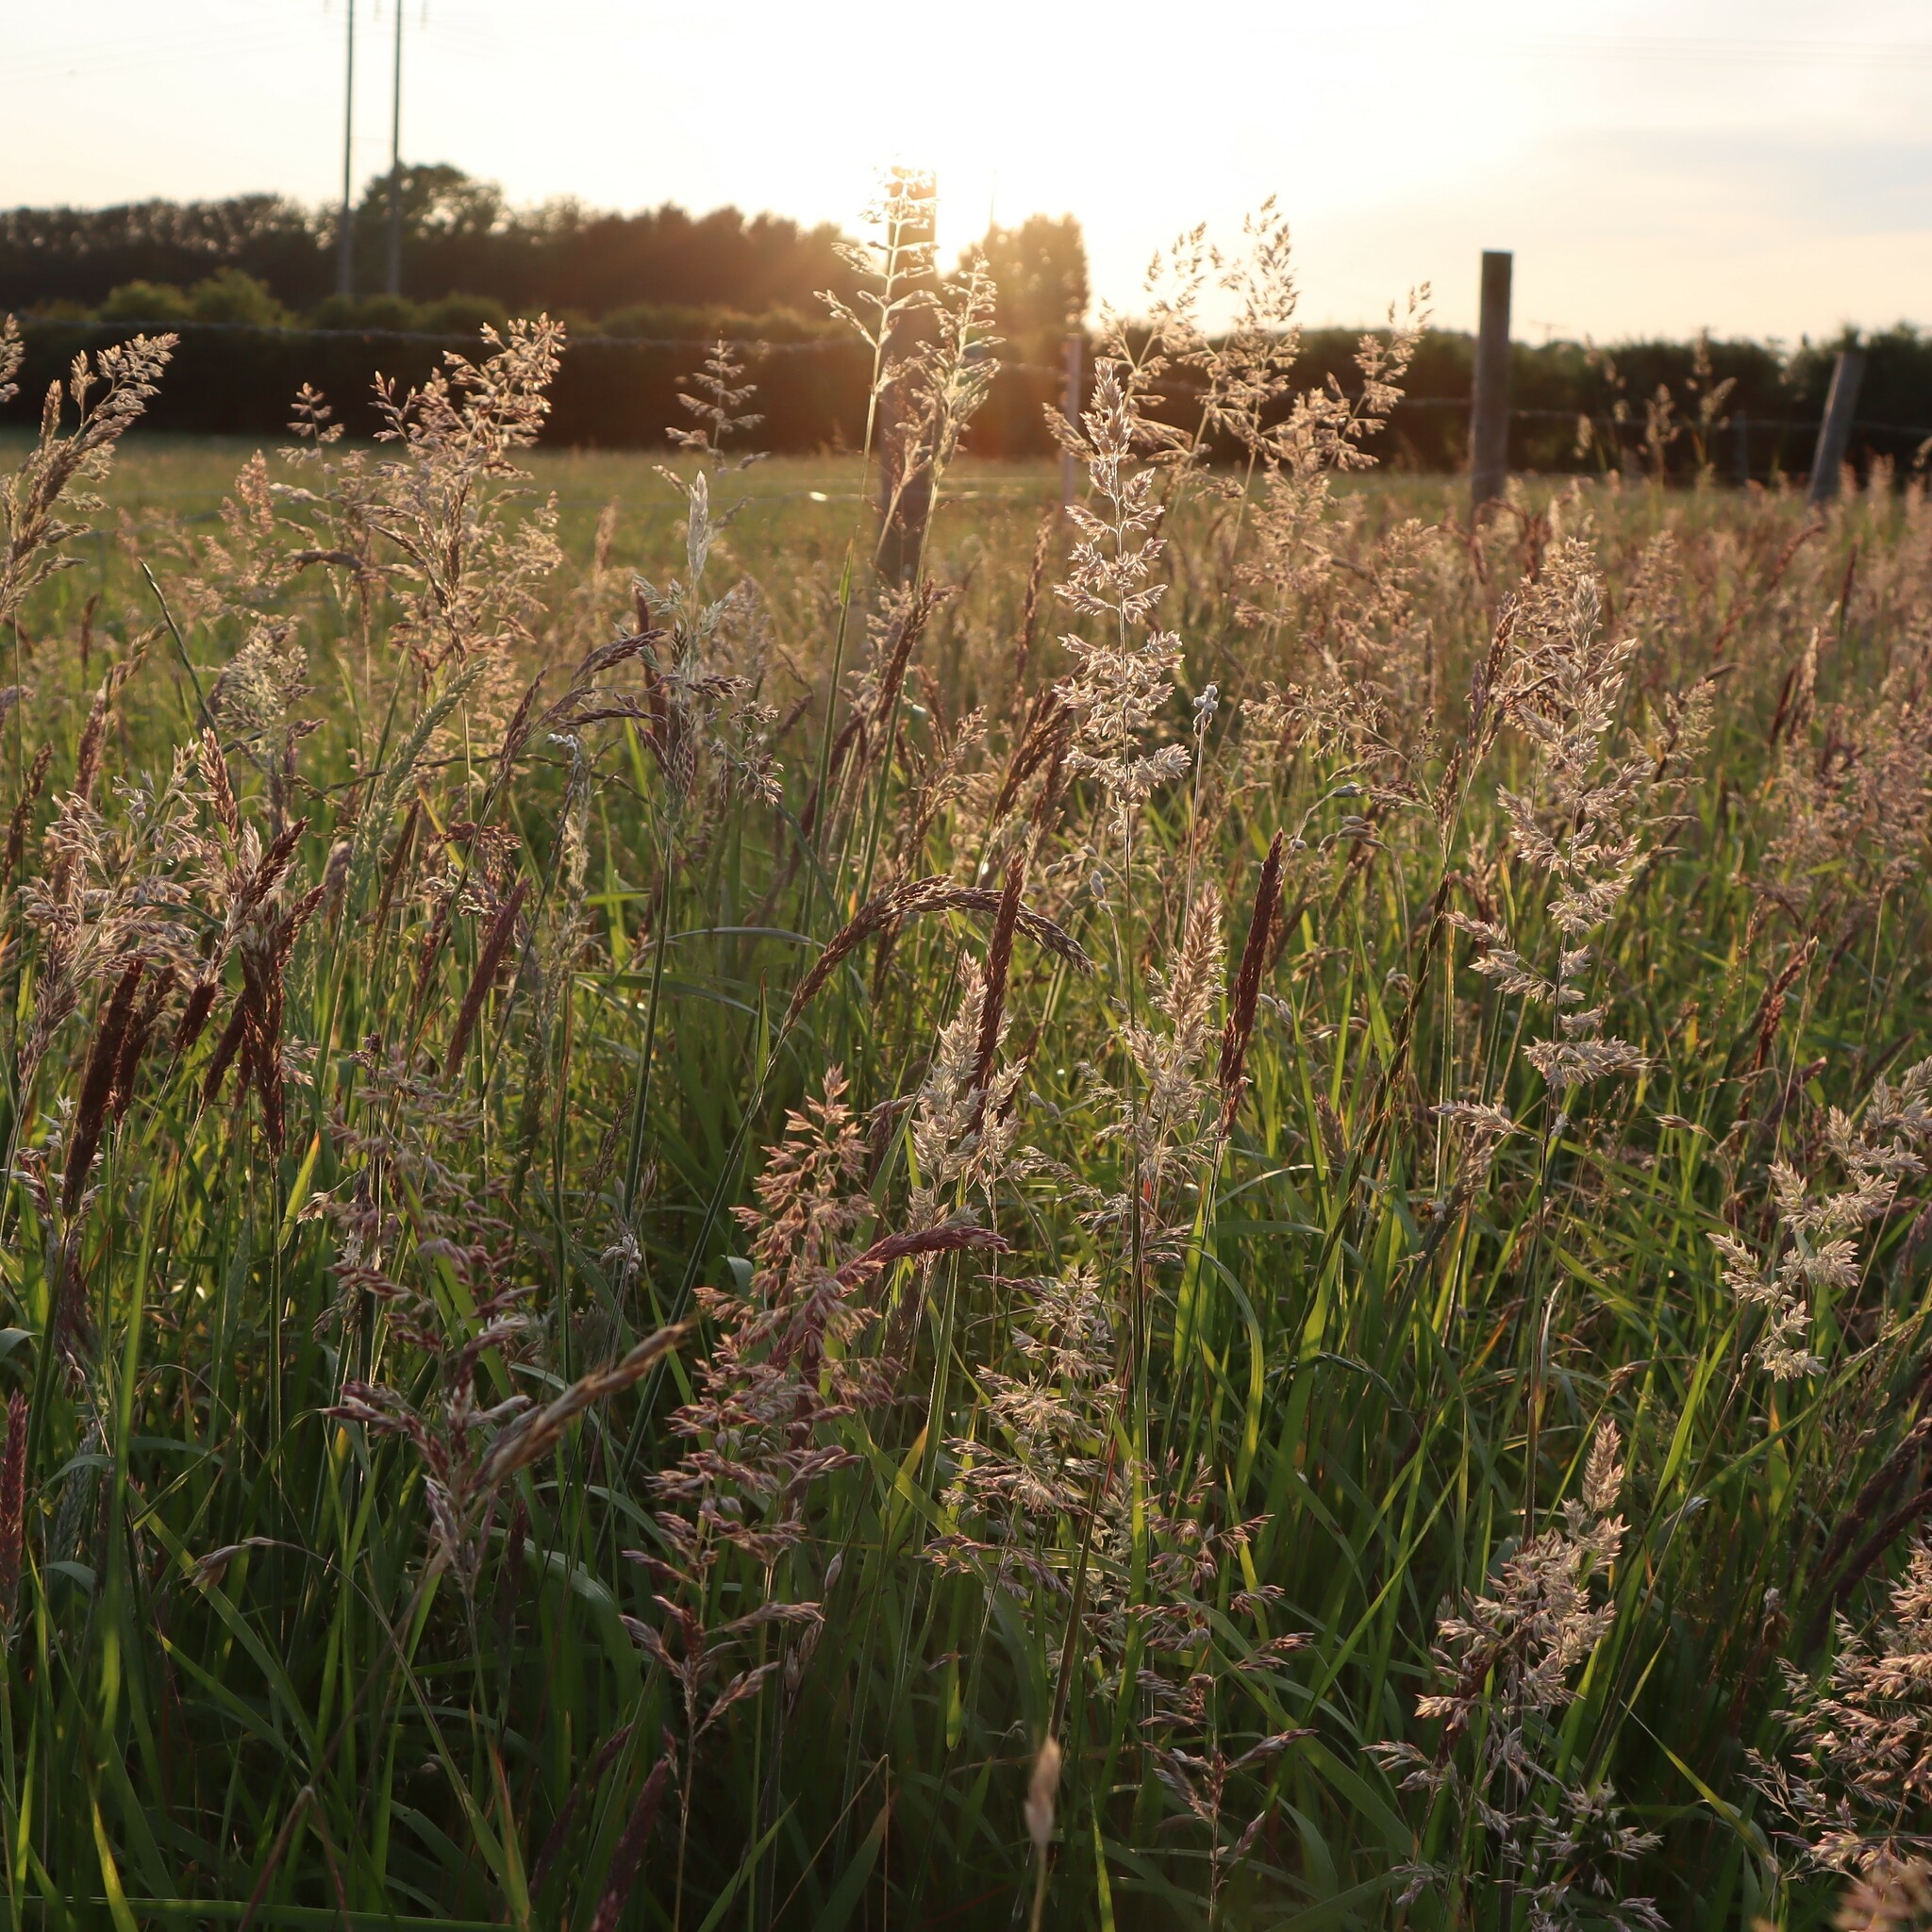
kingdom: Plantae
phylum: Tracheophyta
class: Liliopsida
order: Poales
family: Poaceae
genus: Holcus
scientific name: Holcus lanatus
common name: Yorkshire-fog
